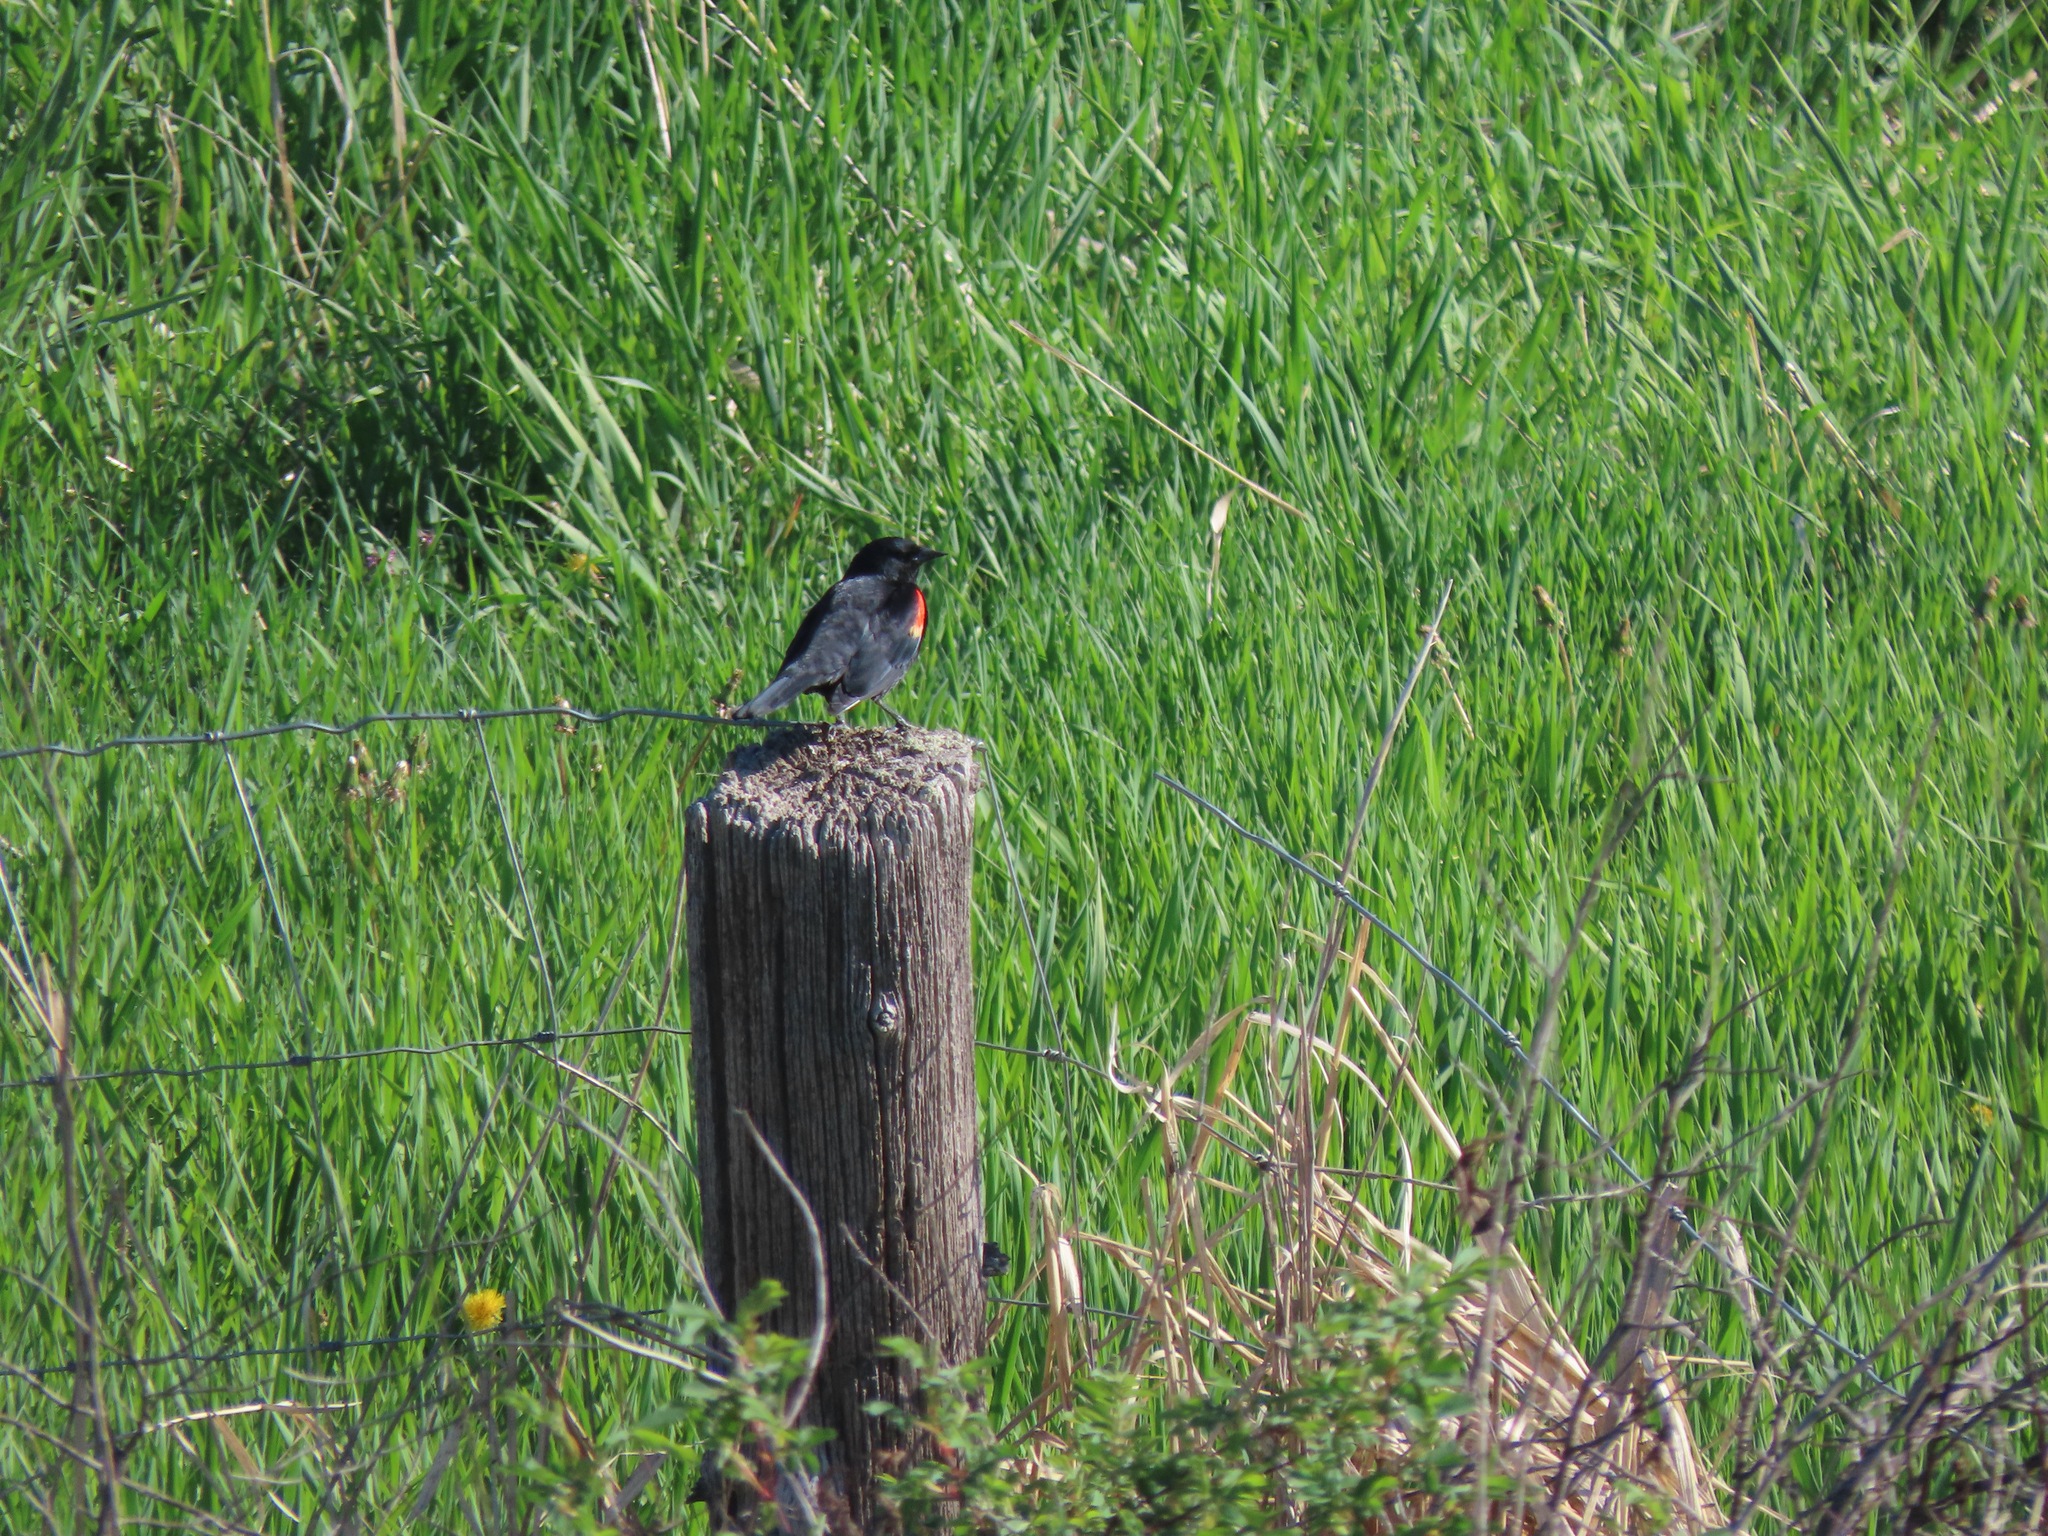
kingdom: Animalia
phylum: Chordata
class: Aves
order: Passeriformes
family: Icteridae
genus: Agelaius
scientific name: Agelaius phoeniceus
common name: Red-winged blackbird
